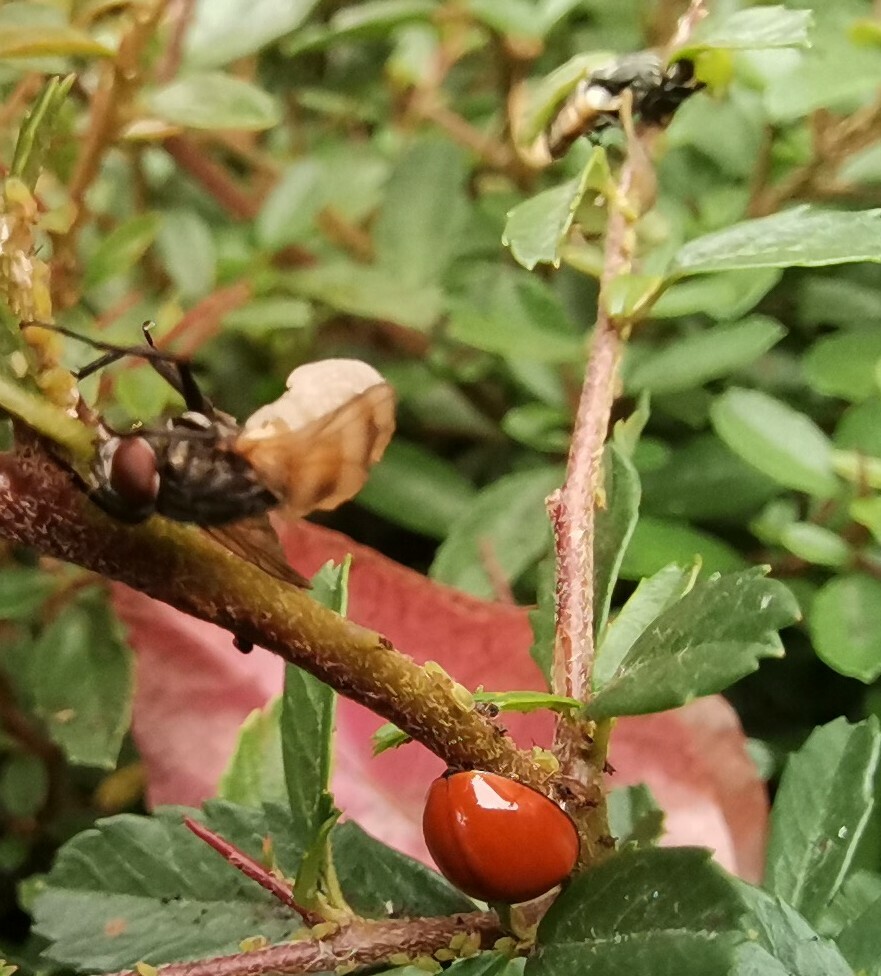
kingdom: Animalia
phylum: Arthropoda
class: Insecta
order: Coleoptera
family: Coccinellidae
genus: Cycloneda
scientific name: Cycloneda
